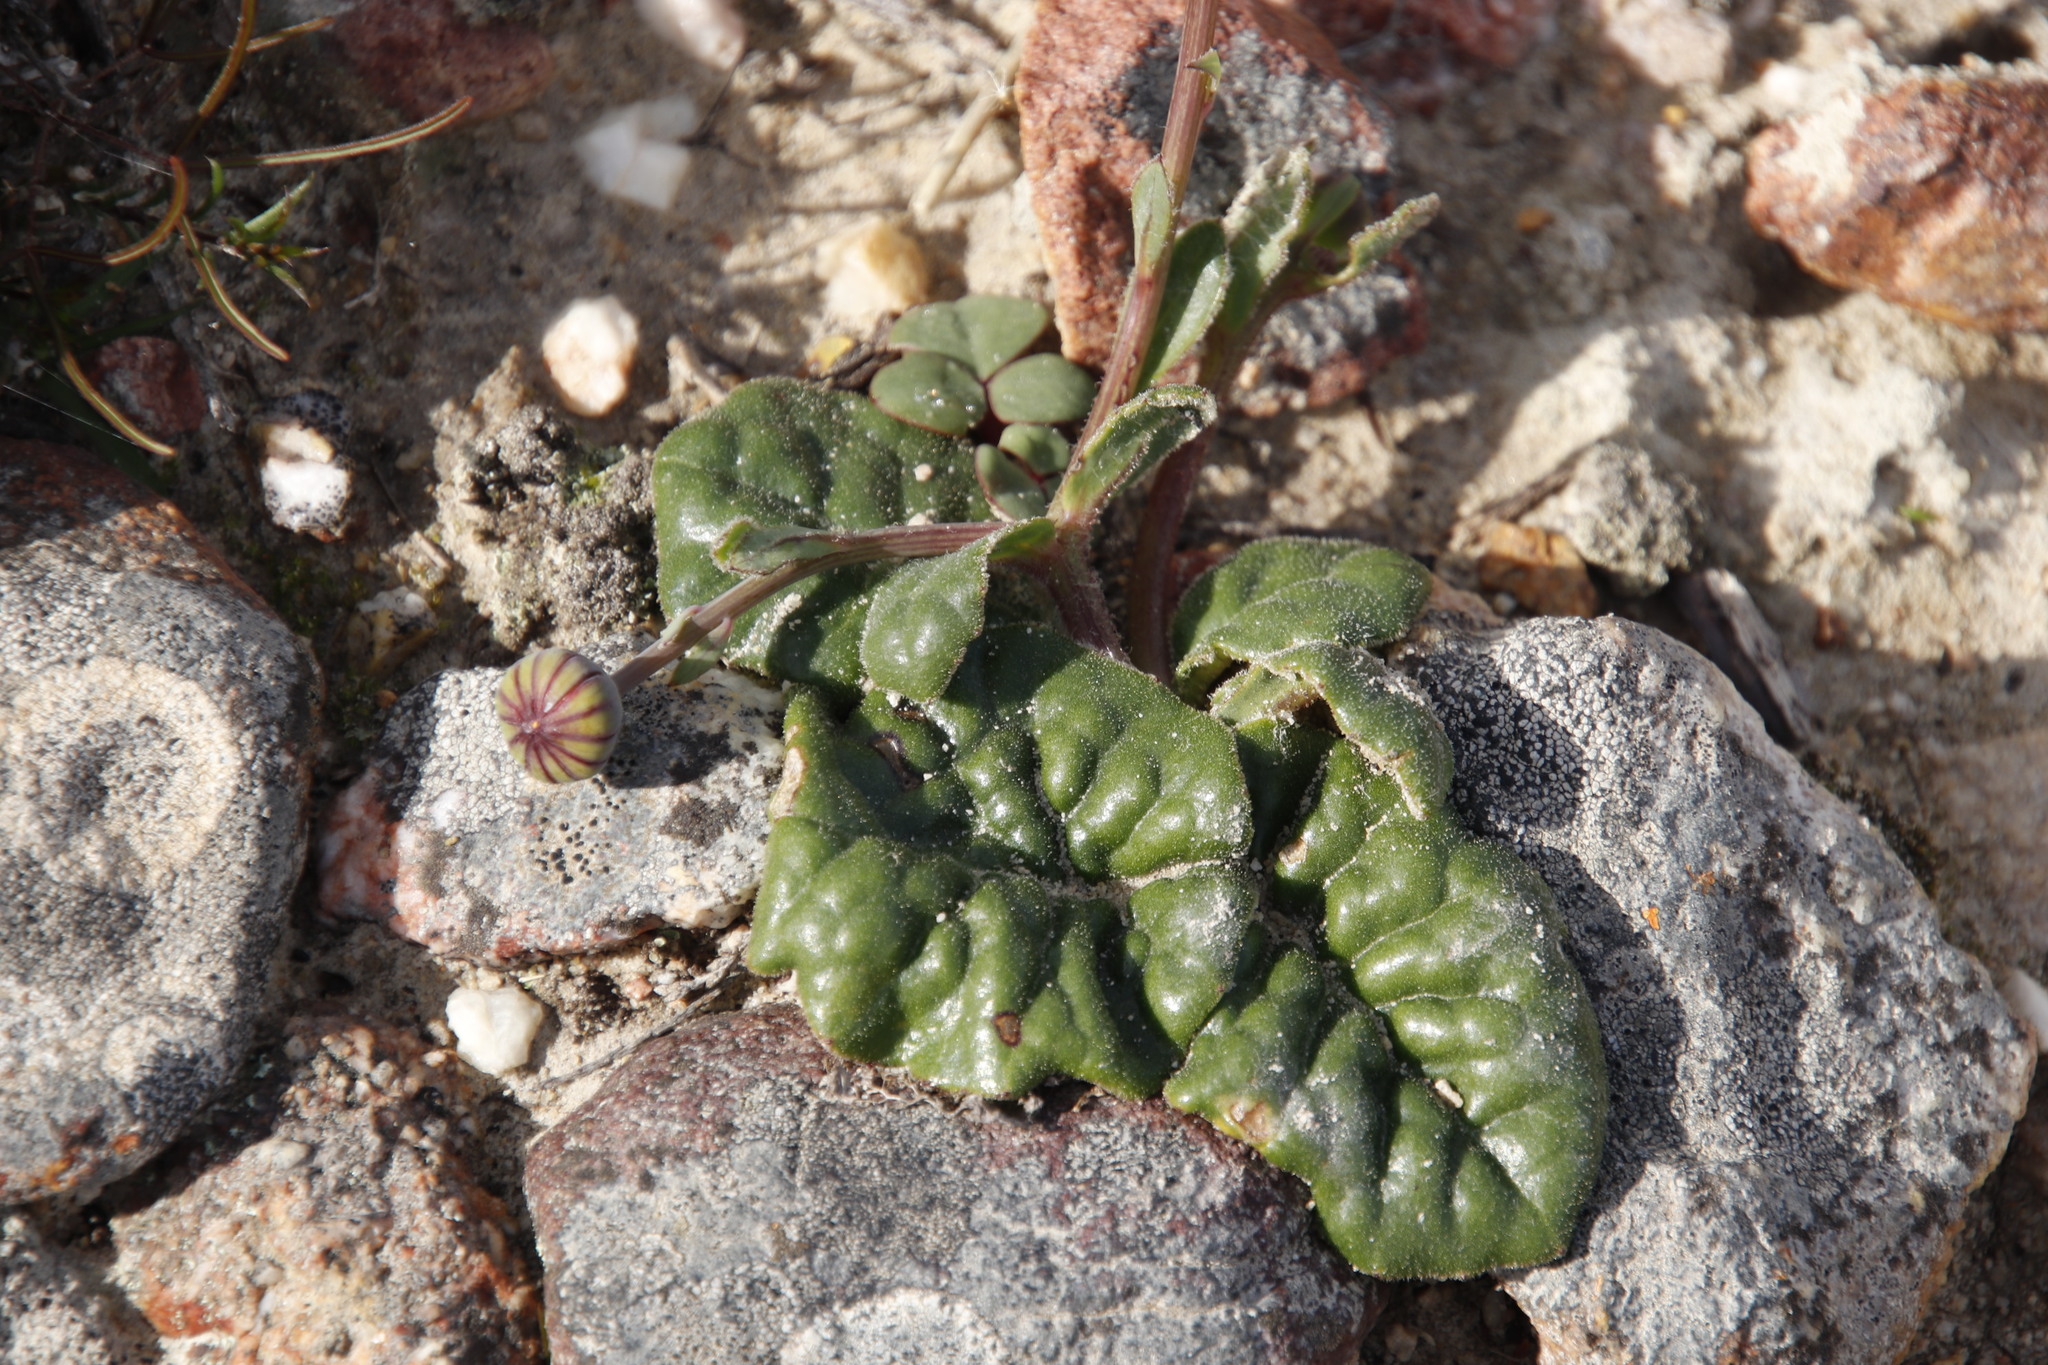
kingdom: Plantae
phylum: Tracheophyta
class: Magnoliopsida
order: Asterales
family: Asteraceae
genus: Othonna
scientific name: Othonna heterophylla
